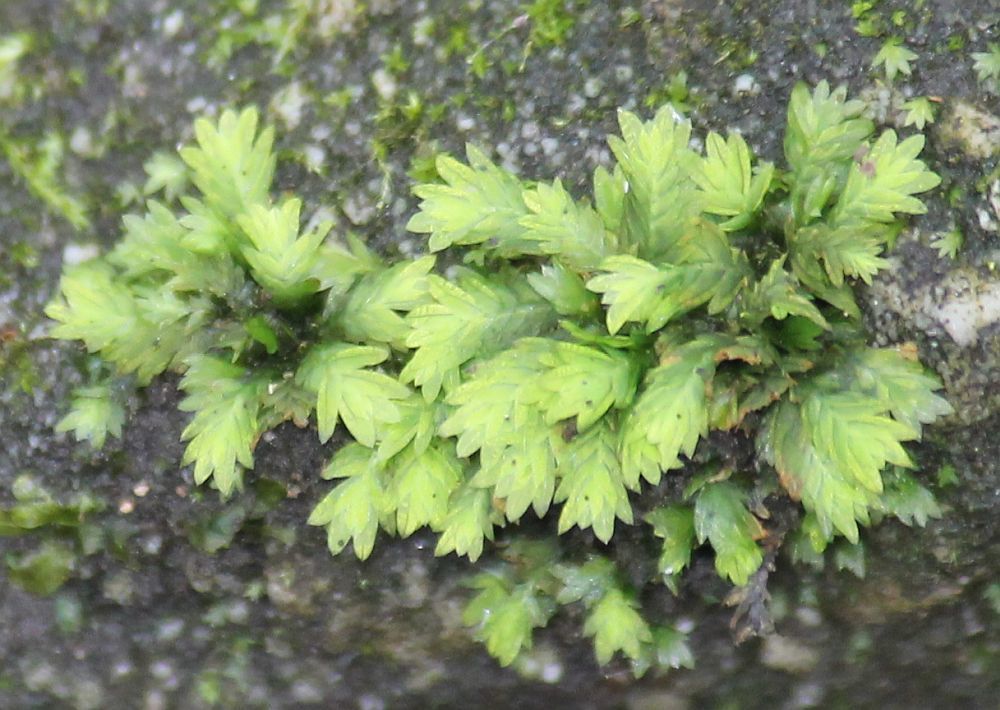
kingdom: Plantae
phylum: Bryophyta
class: Bryopsida
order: Dicranales
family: Fissidentaceae
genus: Fissidens
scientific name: Fissidens taxifolius
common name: Yew-leaved pocket moss
